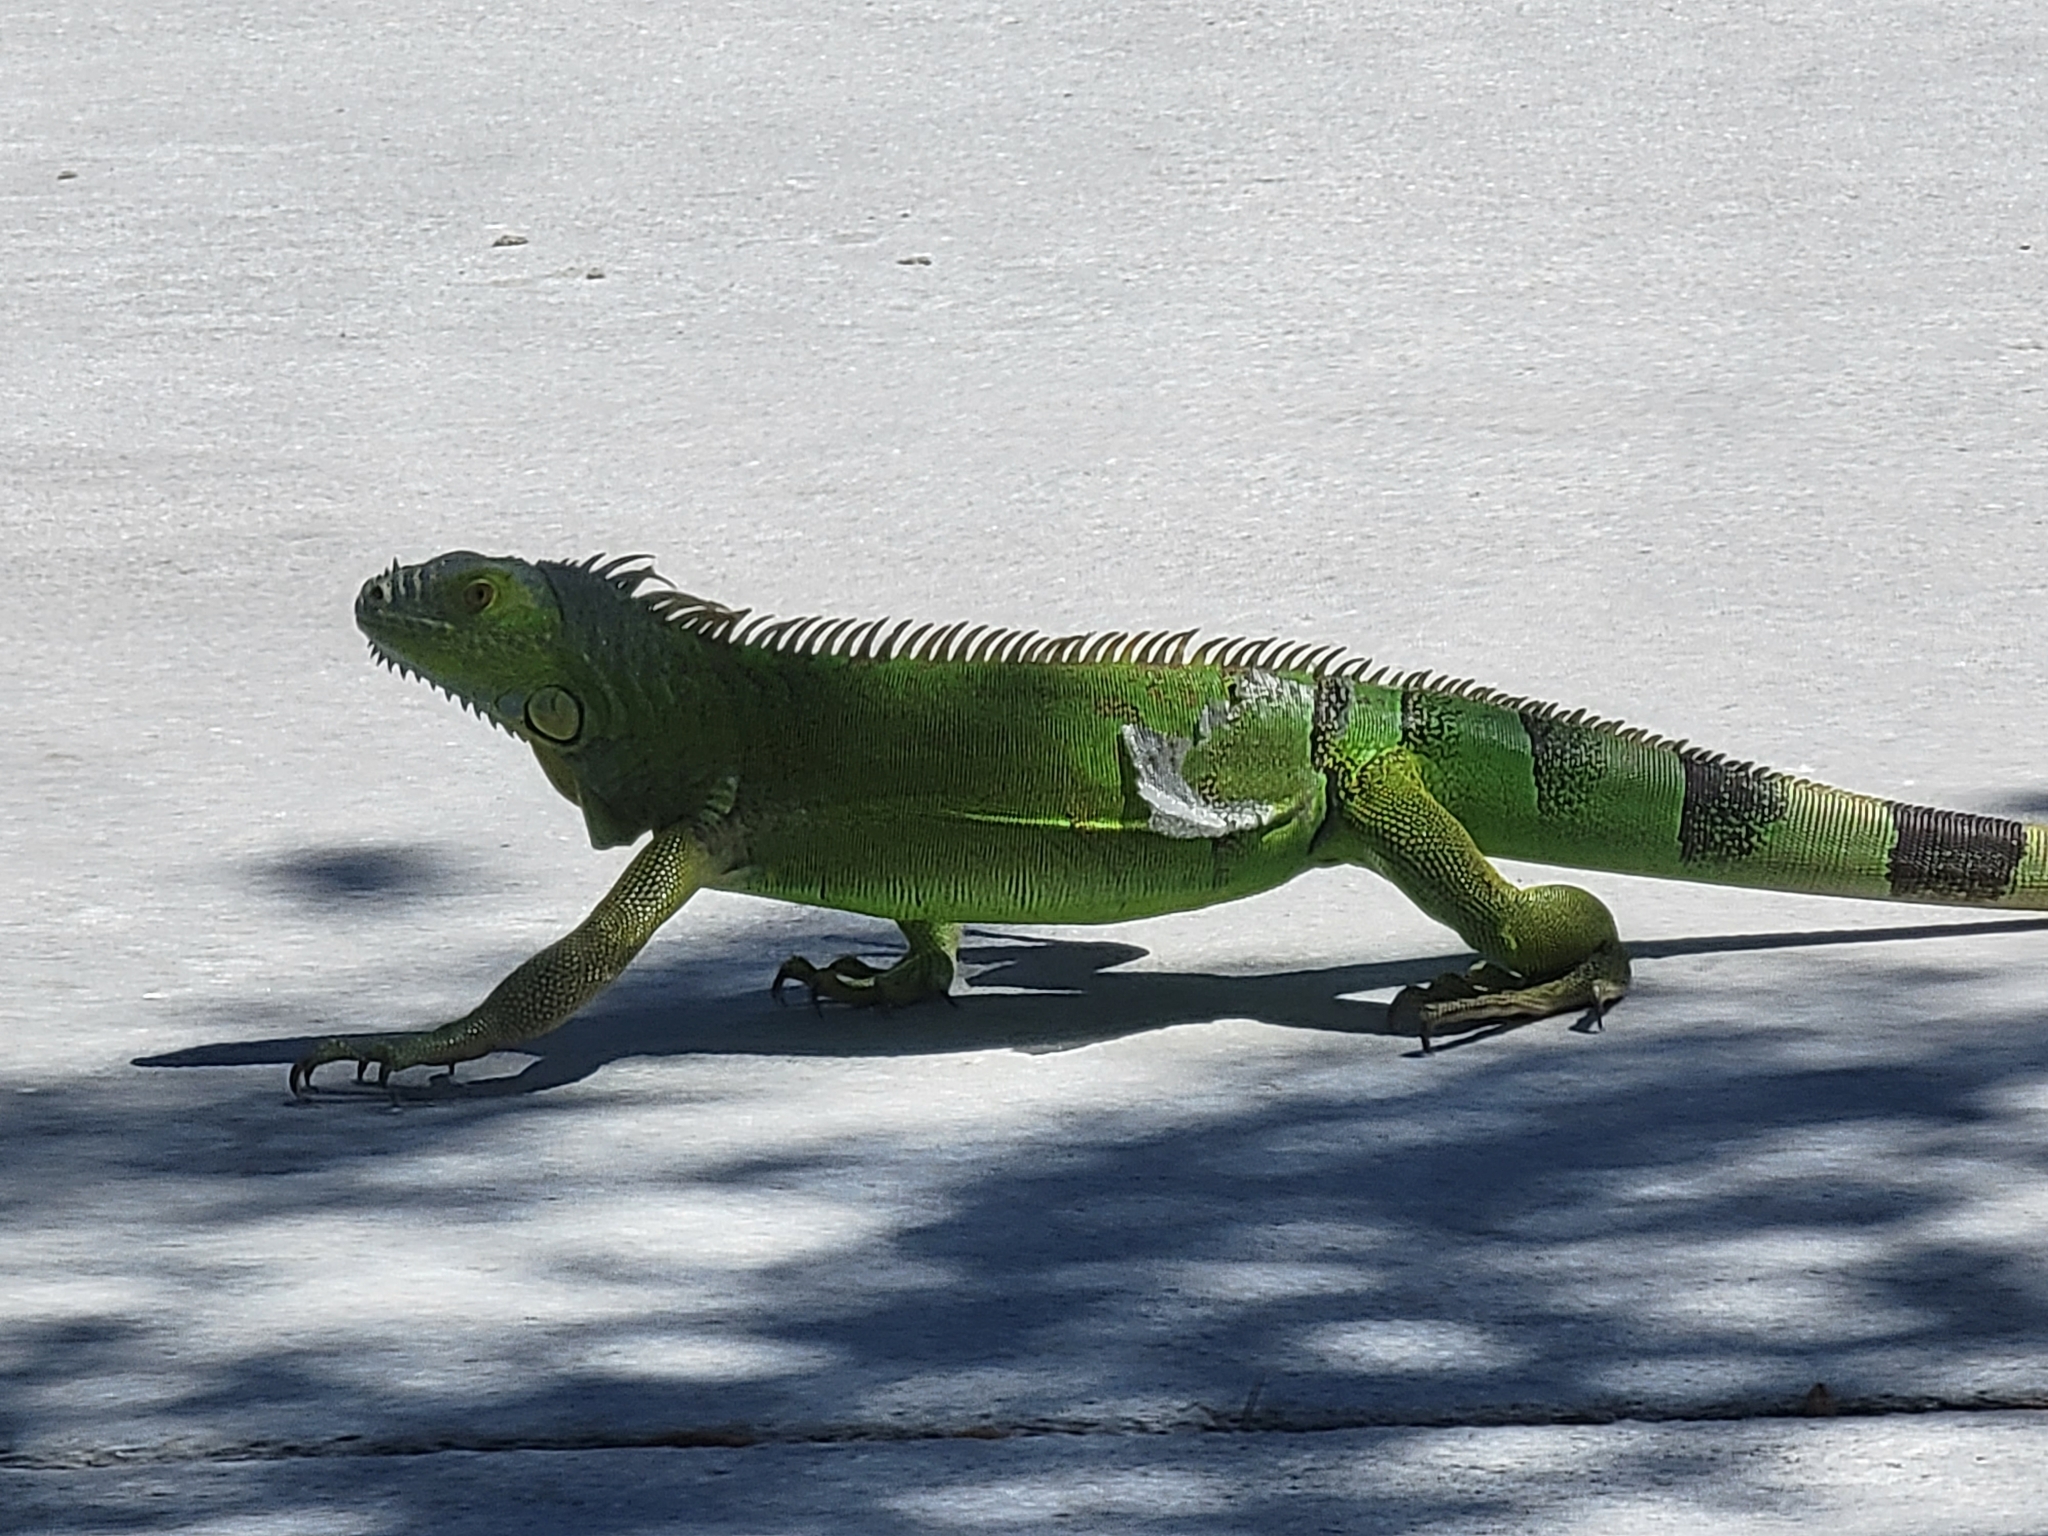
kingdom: Animalia
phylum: Chordata
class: Squamata
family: Iguanidae
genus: Iguana
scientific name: Iguana iguana
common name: Green iguana
